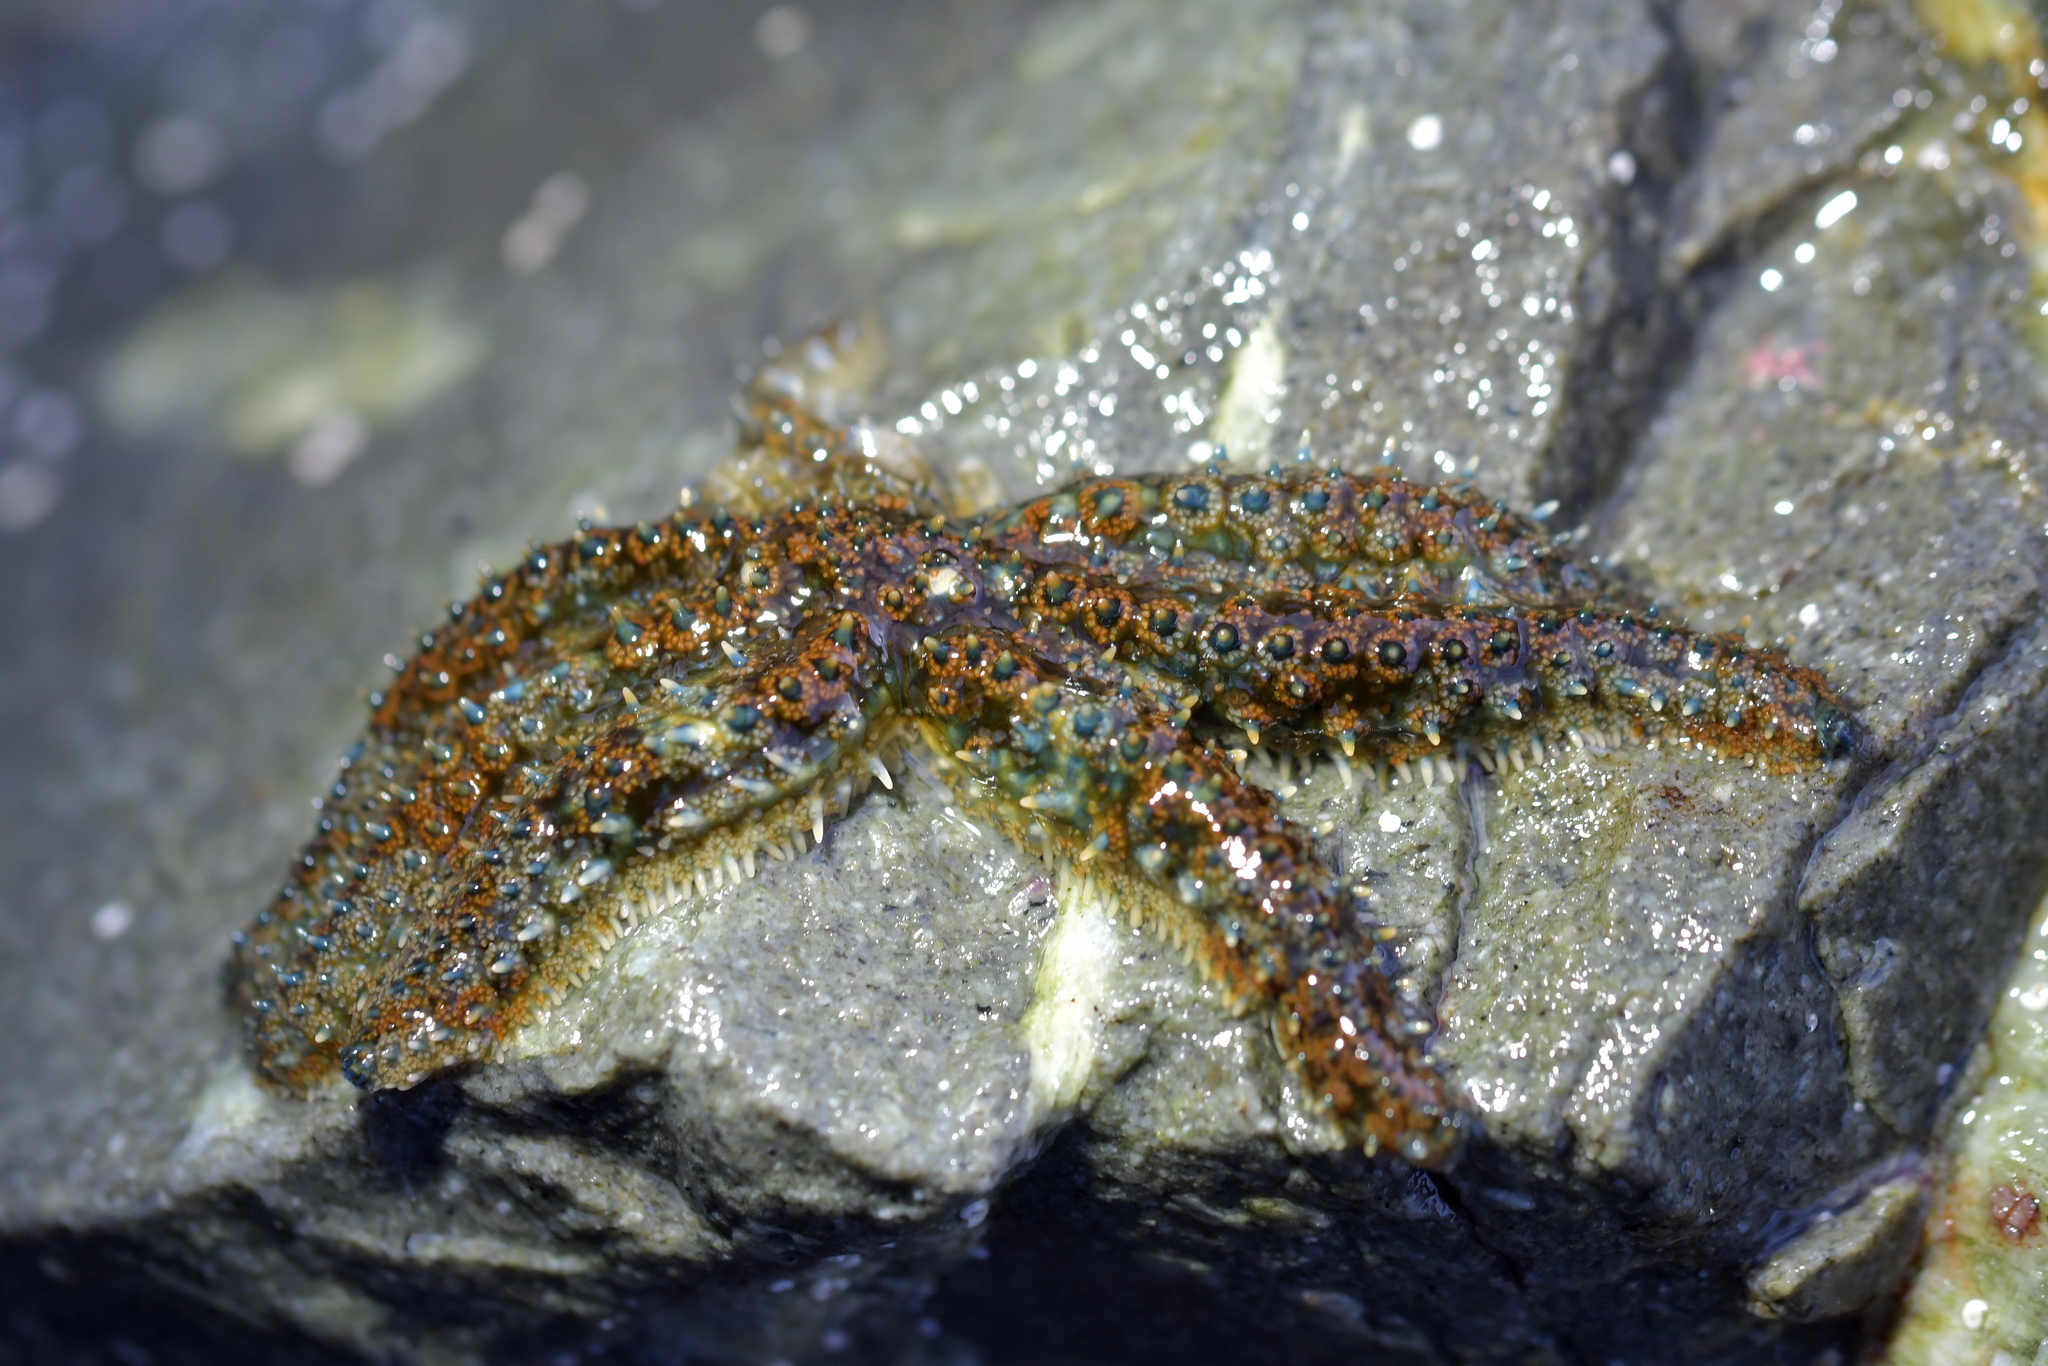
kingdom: Animalia
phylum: Echinodermata
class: Asteroidea
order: Forcipulatida
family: Asteriidae
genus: Coscinasterias
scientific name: Coscinasterias muricata
